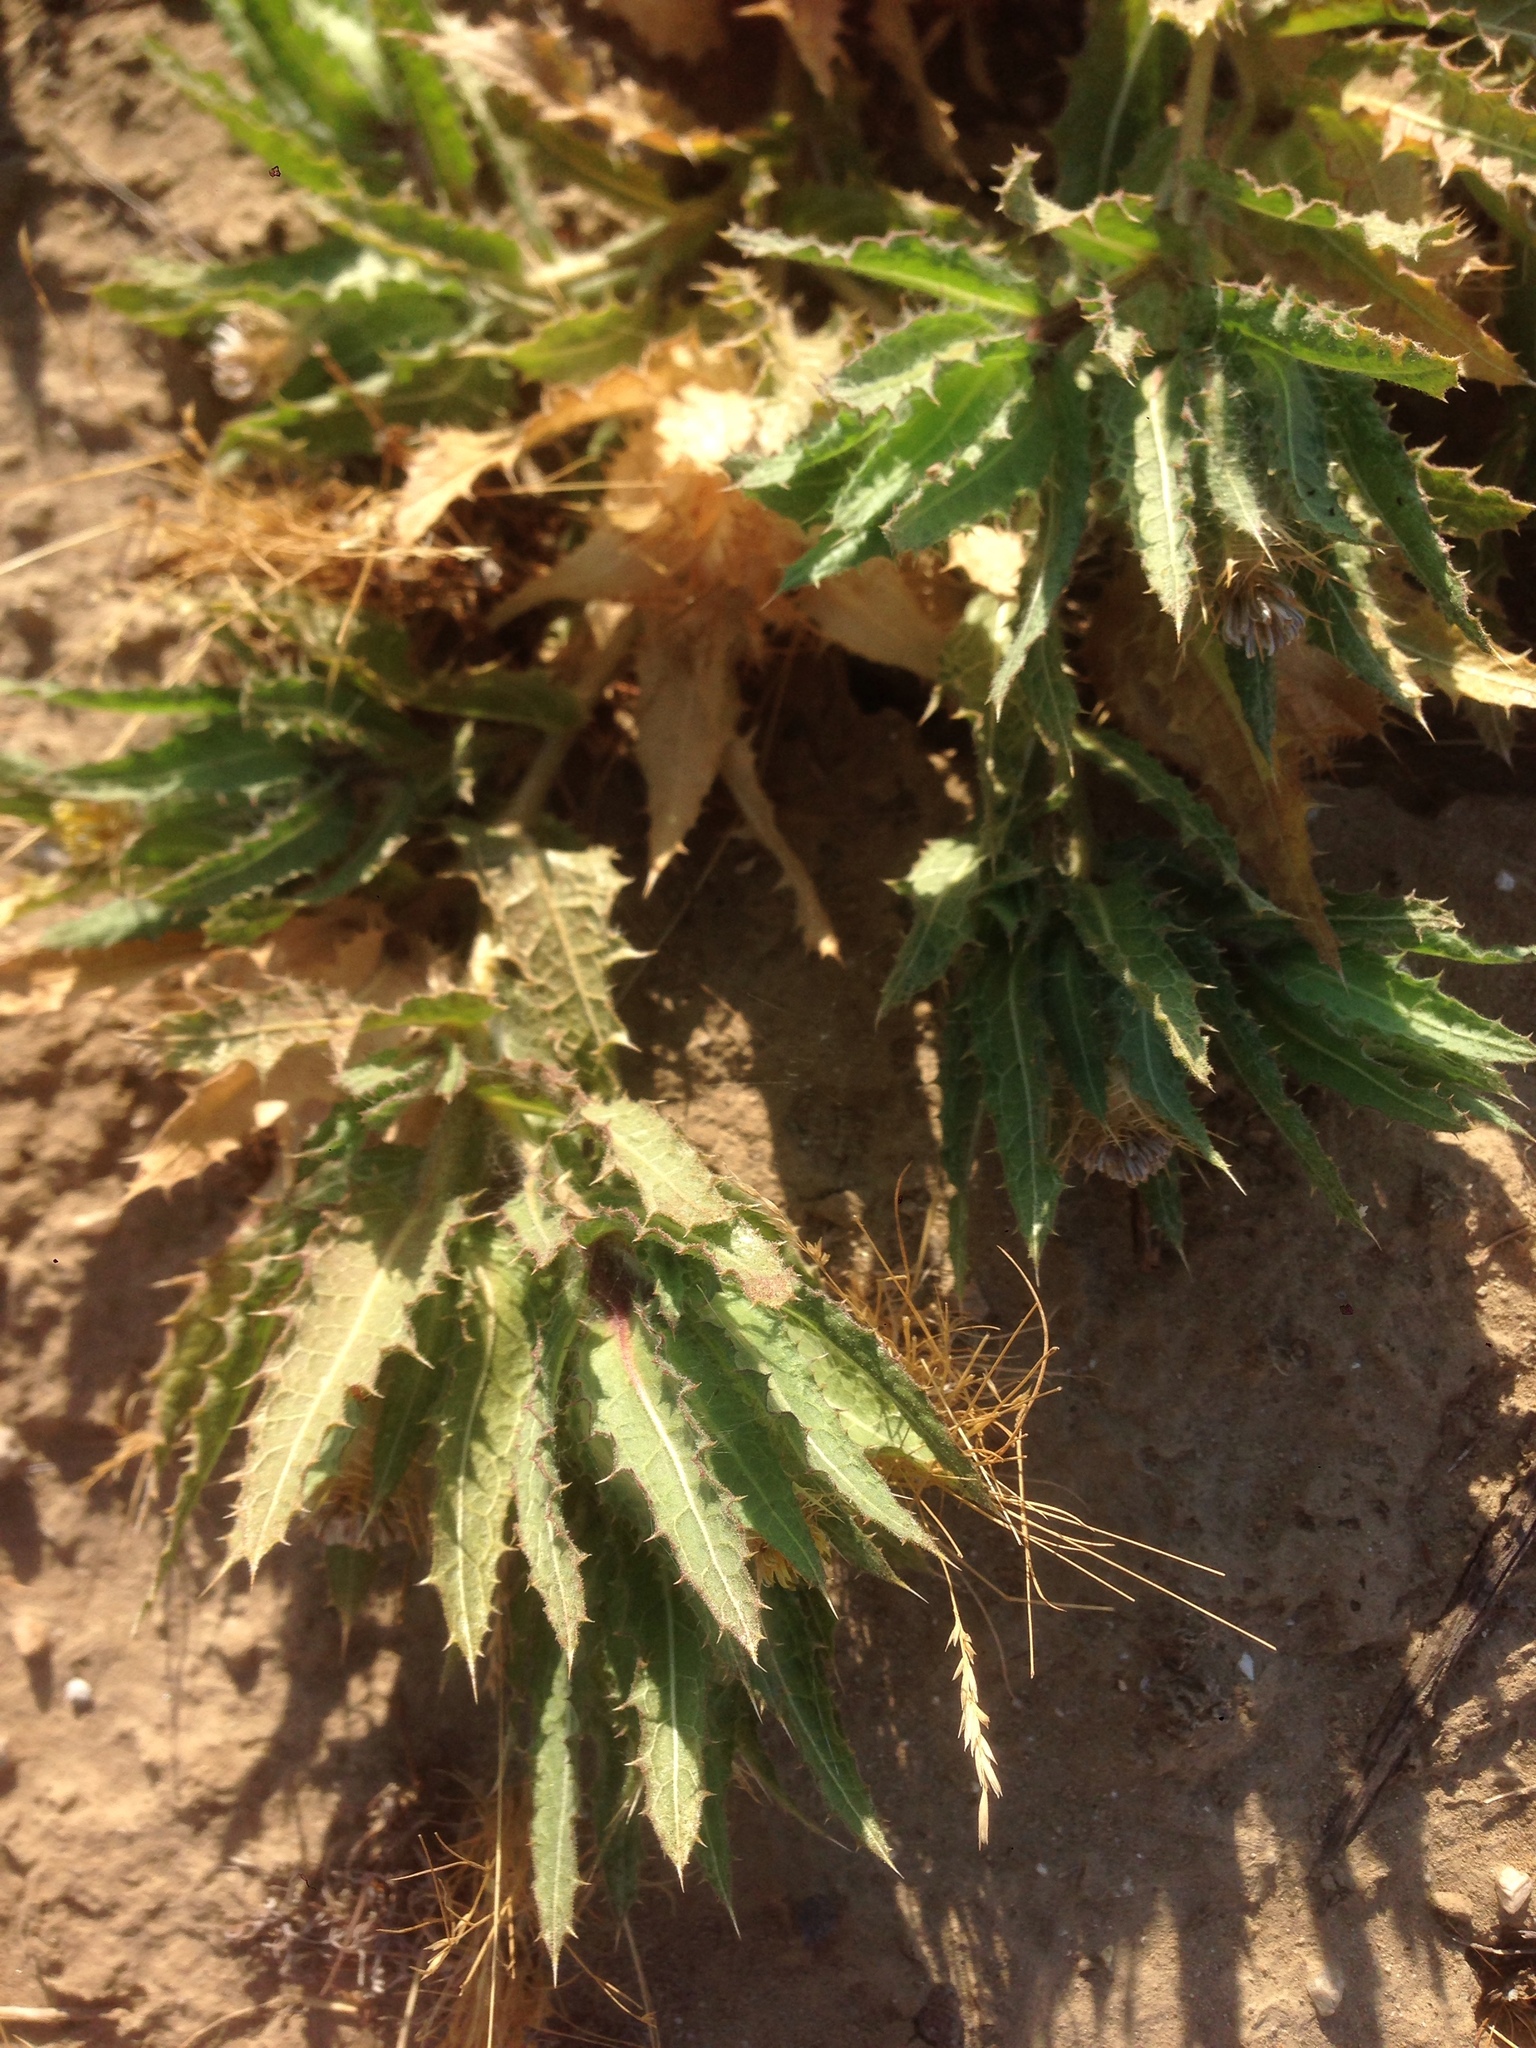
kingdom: Plantae
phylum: Tracheophyta
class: Magnoliopsida
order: Asterales
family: Asteraceae
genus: Centaurea
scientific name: Centaurea benedicta
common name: Blessed thistle
